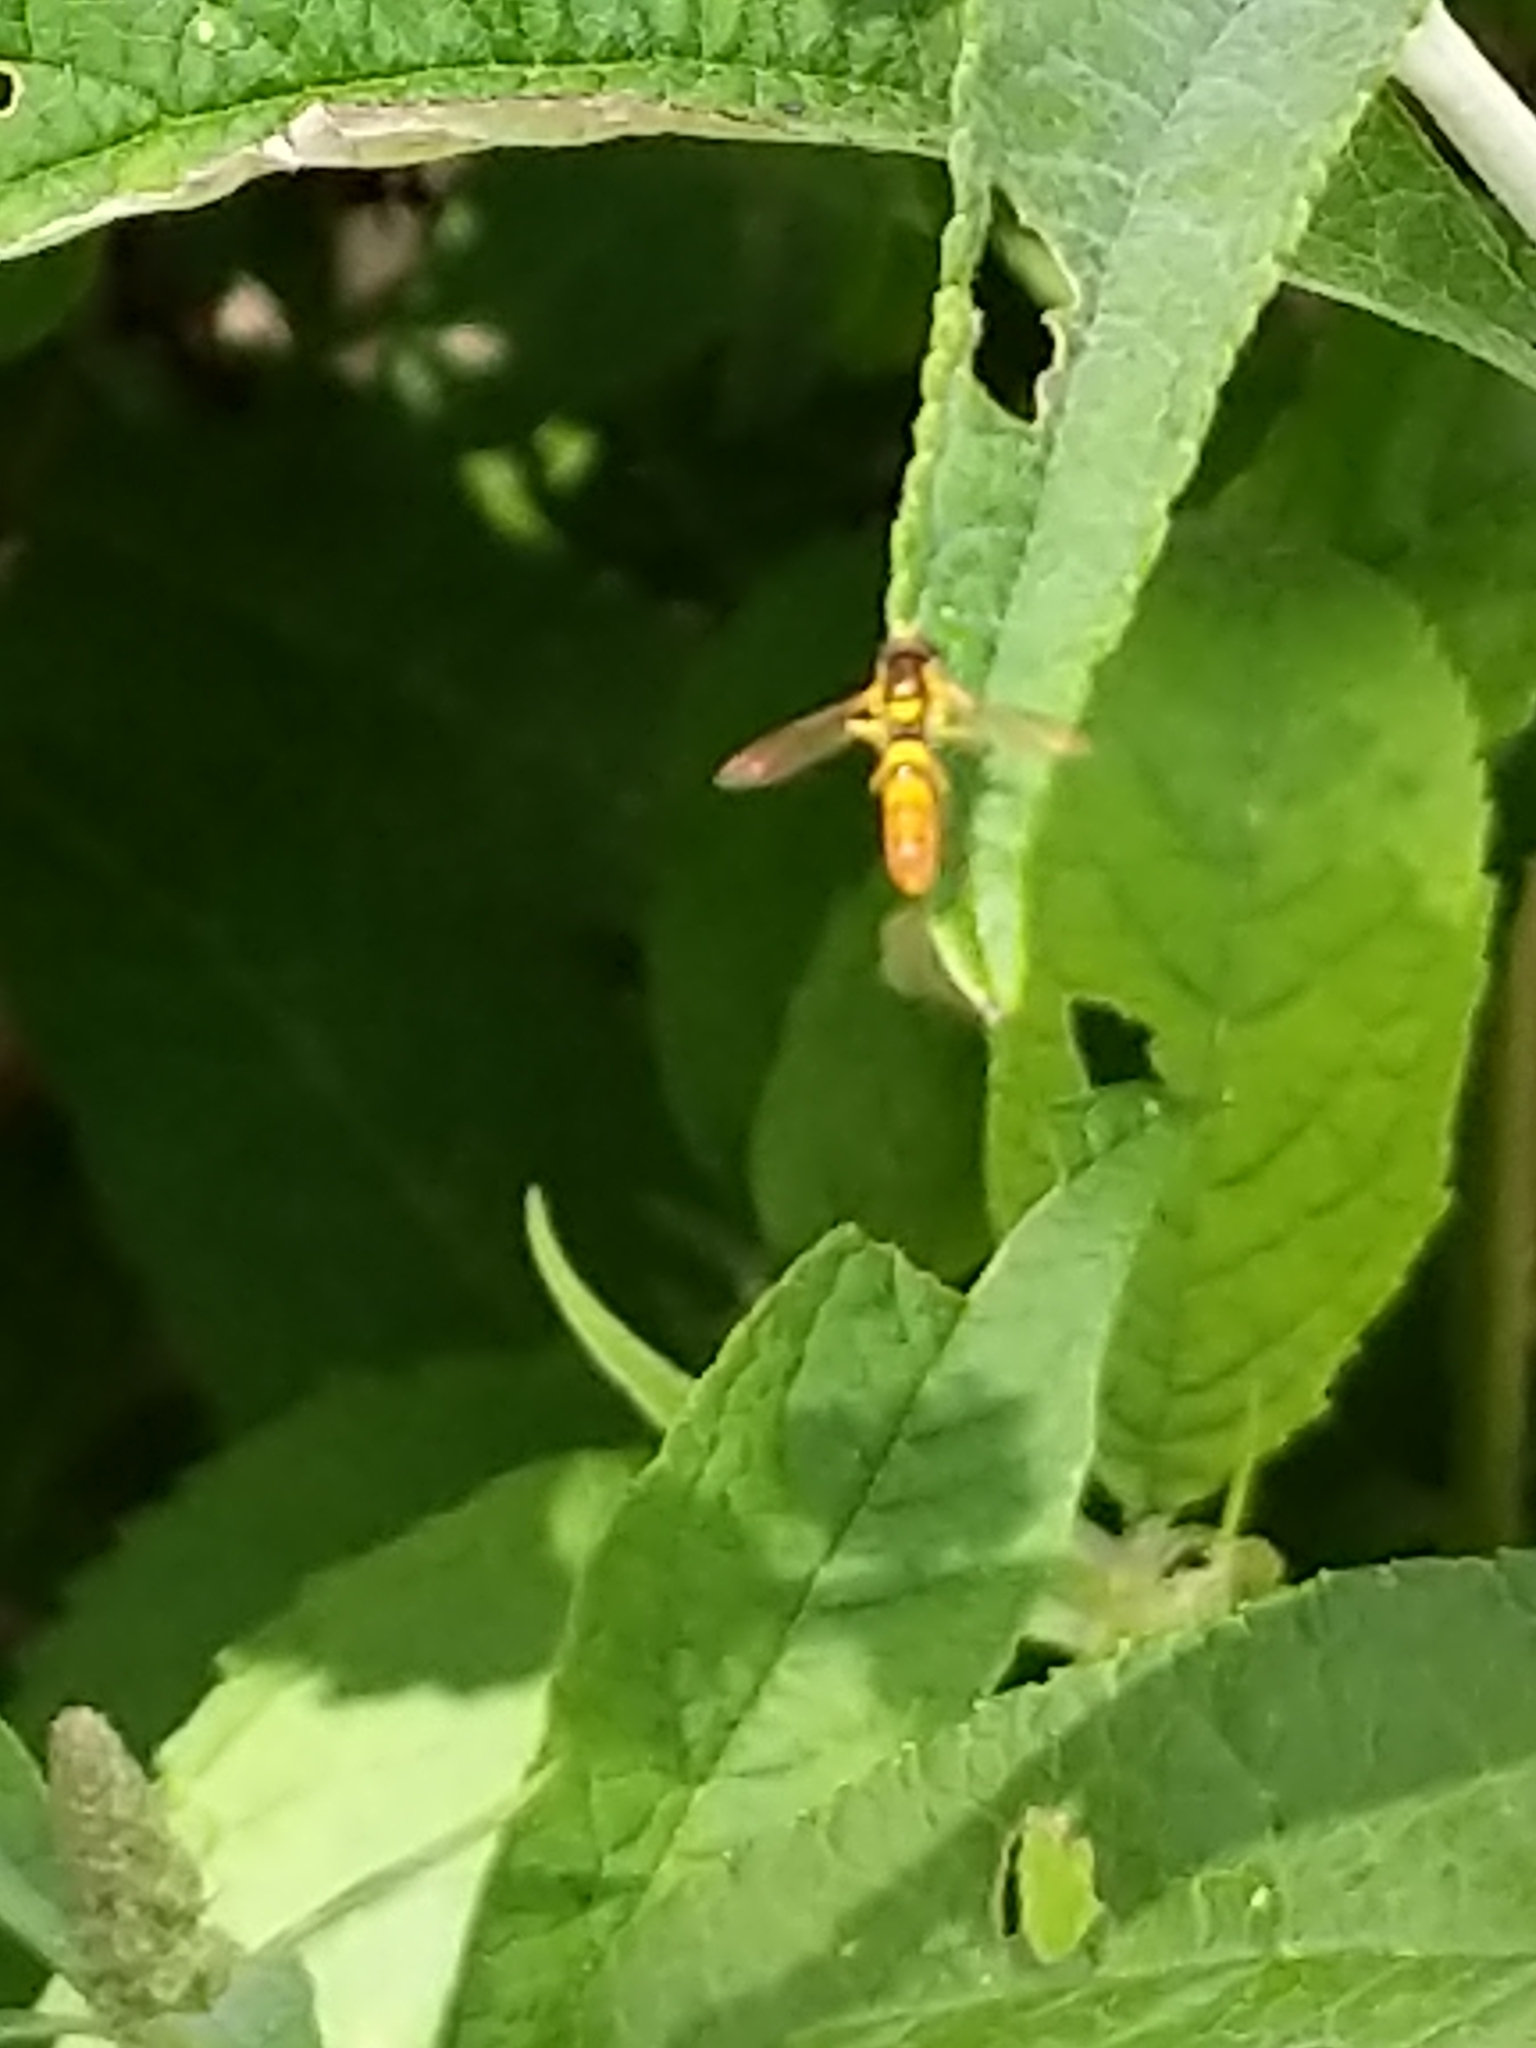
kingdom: Animalia
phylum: Arthropoda
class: Insecta
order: Diptera
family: Syrphidae
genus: Sphaerophoria
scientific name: Sphaerophoria contigua
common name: Tufted globetail
